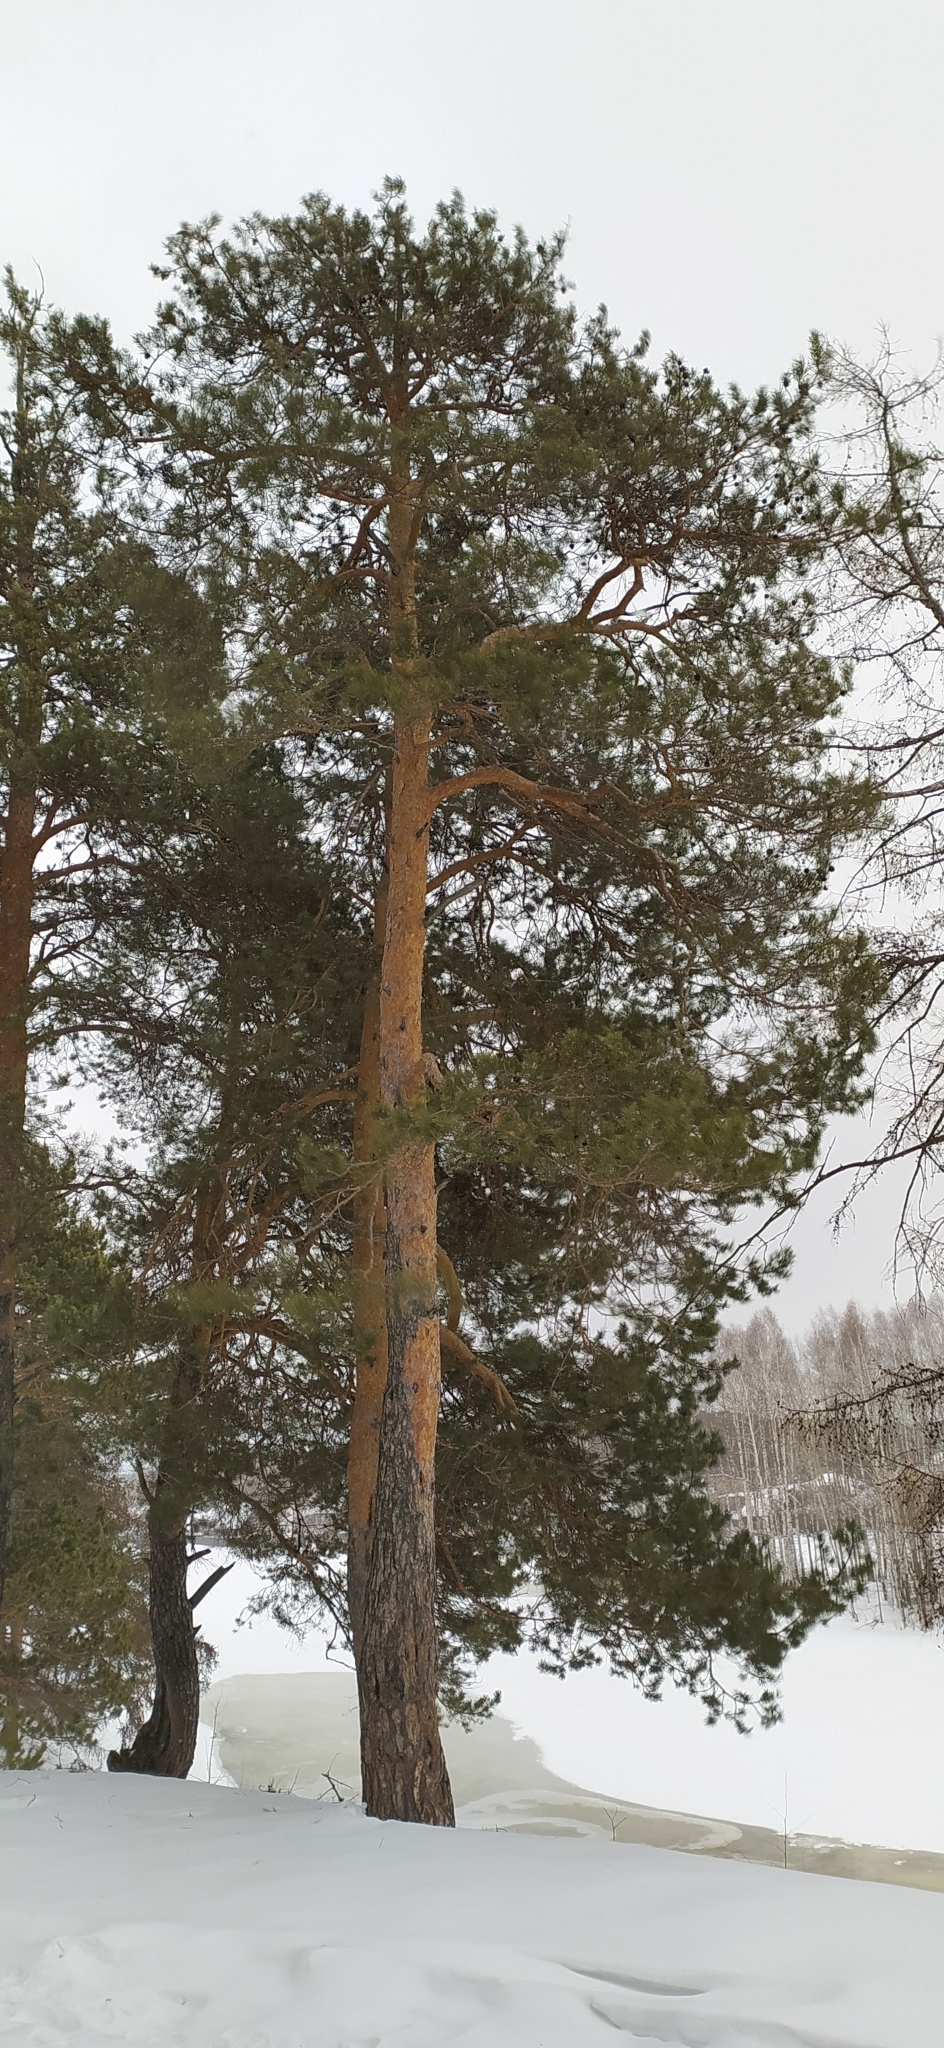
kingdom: Plantae
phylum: Tracheophyta
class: Pinopsida
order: Pinales
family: Pinaceae
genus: Pinus
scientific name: Pinus sylvestris
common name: Scots pine
